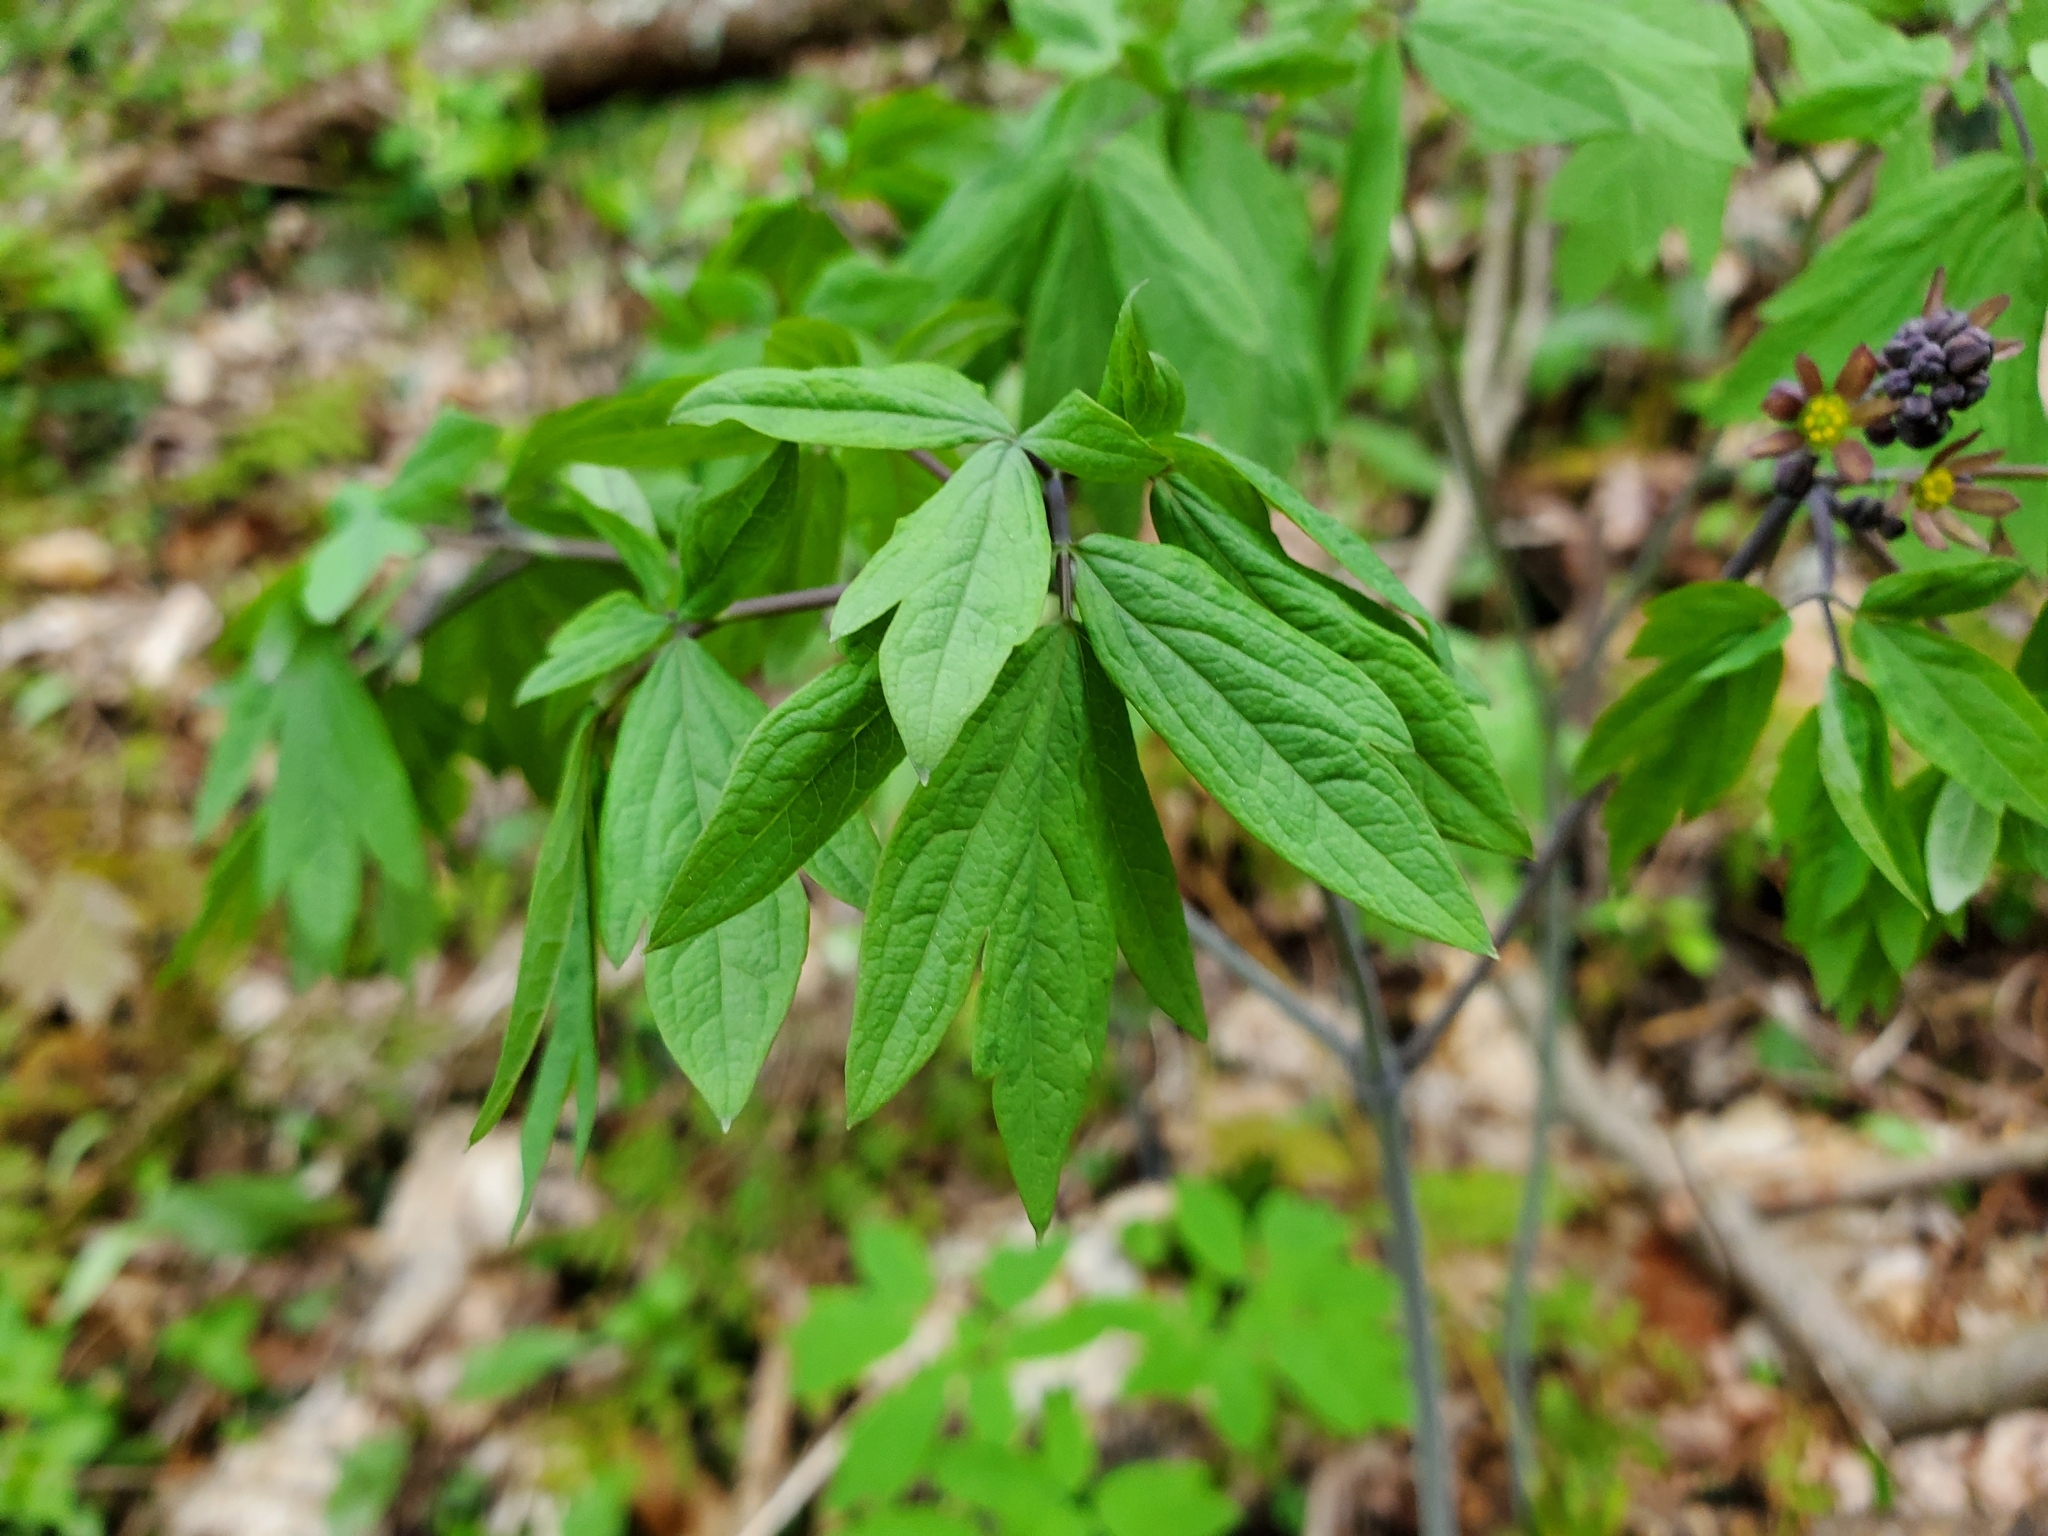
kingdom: Plantae
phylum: Tracheophyta
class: Magnoliopsida
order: Ranunculales
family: Berberidaceae
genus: Caulophyllum
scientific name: Caulophyllum giganteum
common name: Blue cohosh
